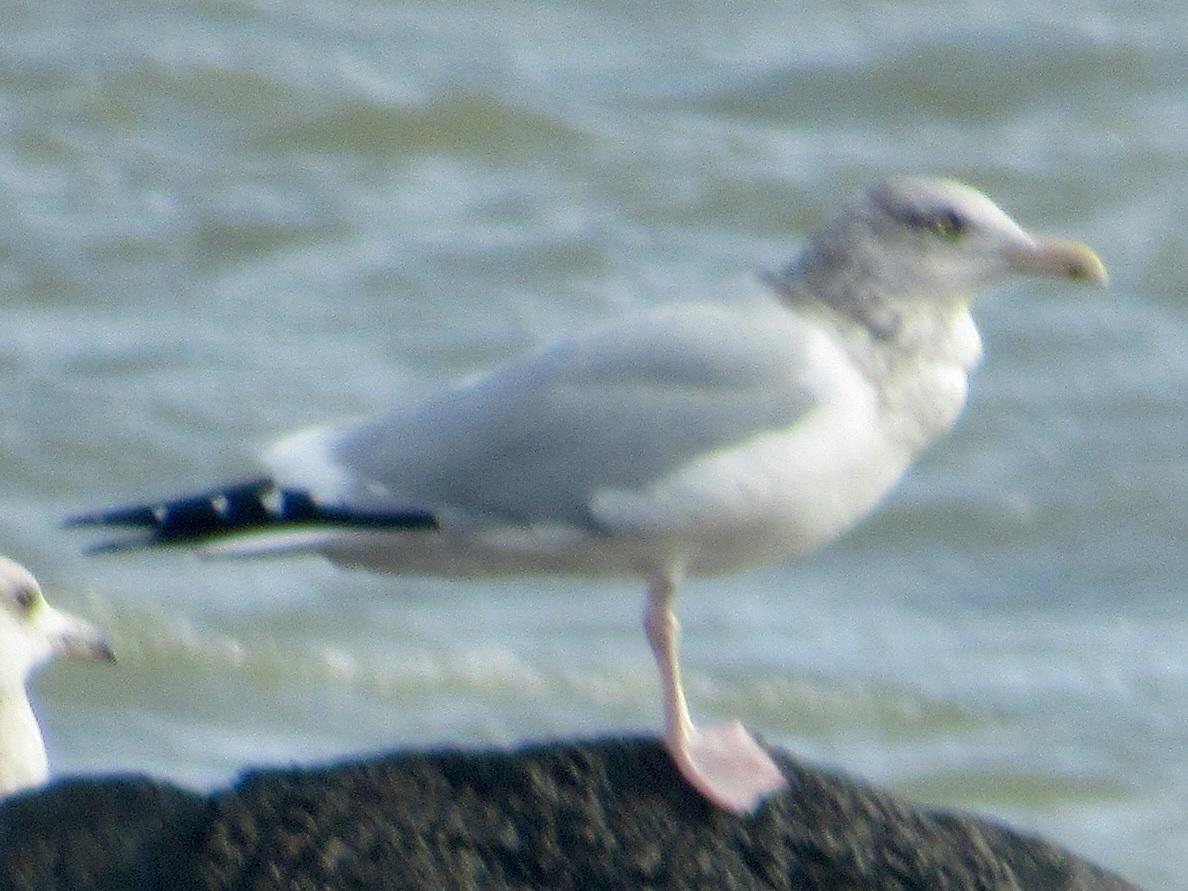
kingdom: Animalia
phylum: Chordata
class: Aves
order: Charadriiformes
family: Laridae
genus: Larus
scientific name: Larus argentatus
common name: Herring gull
